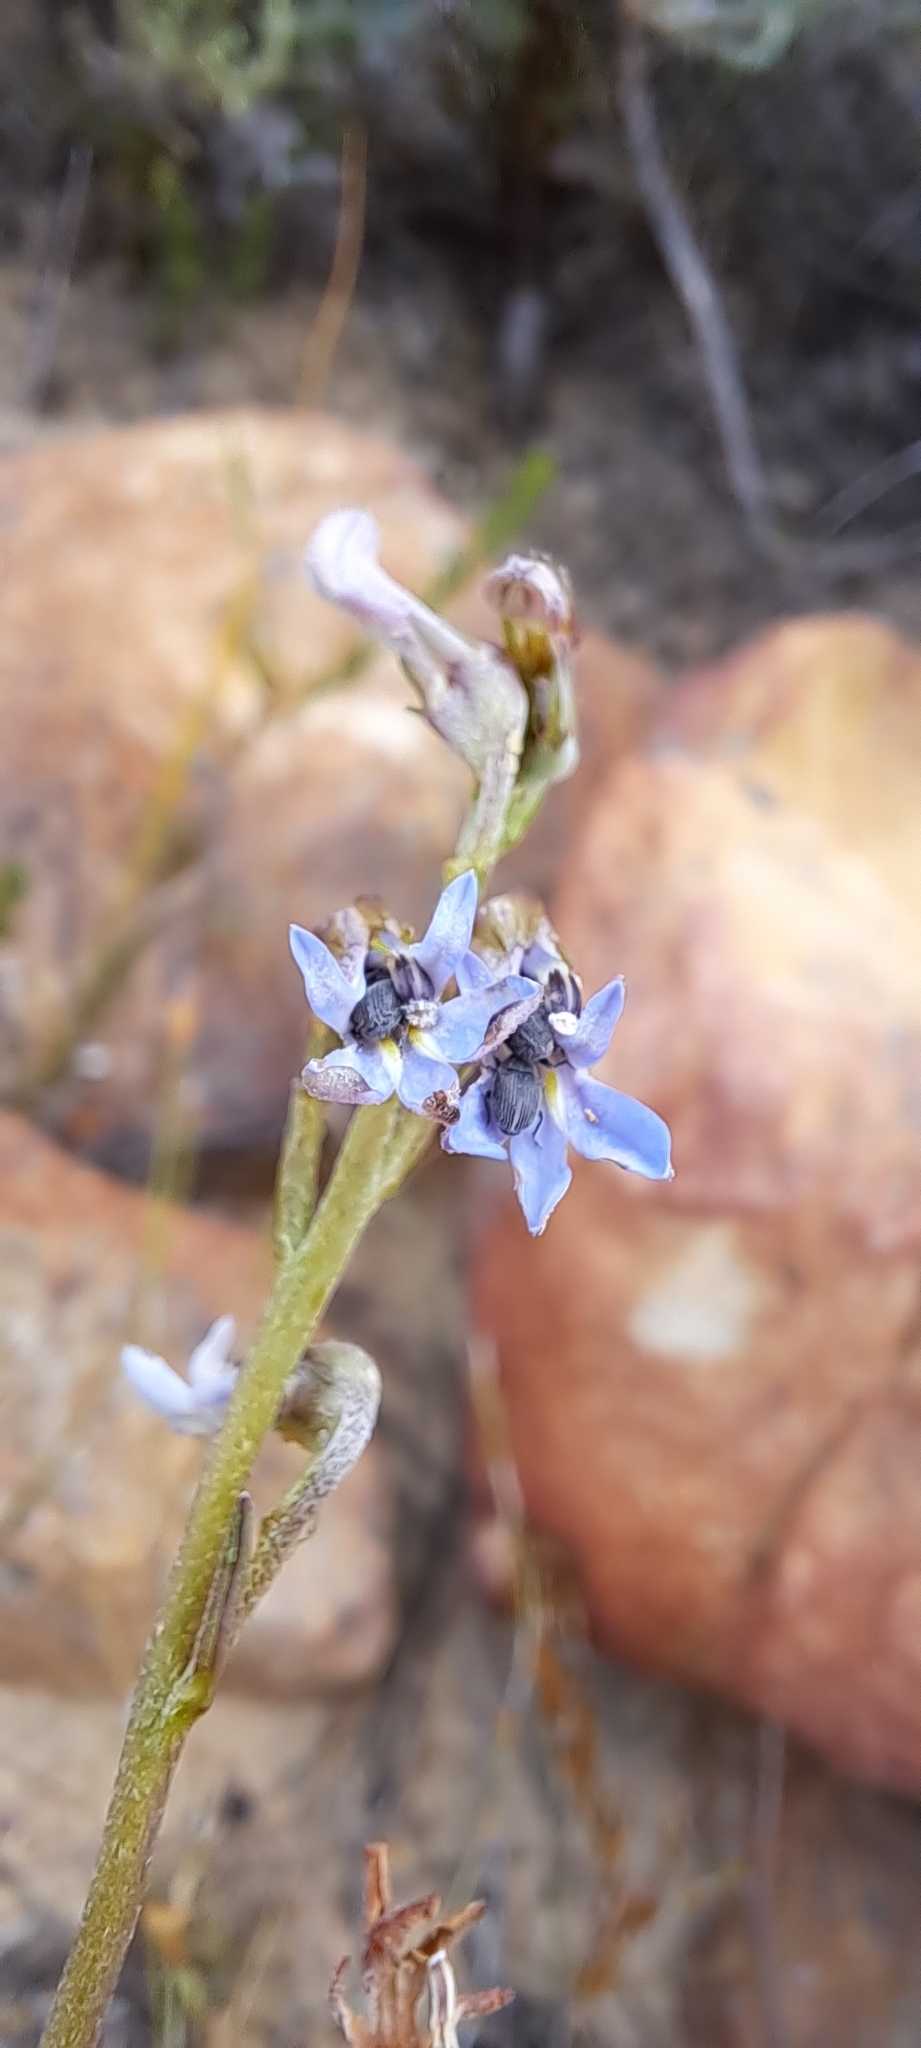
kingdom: Plantae
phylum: Tracheophyta
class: Magnoliopsida
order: Asterales
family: Campanulaceae
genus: Lobelia
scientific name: Lobelia pinifolia
